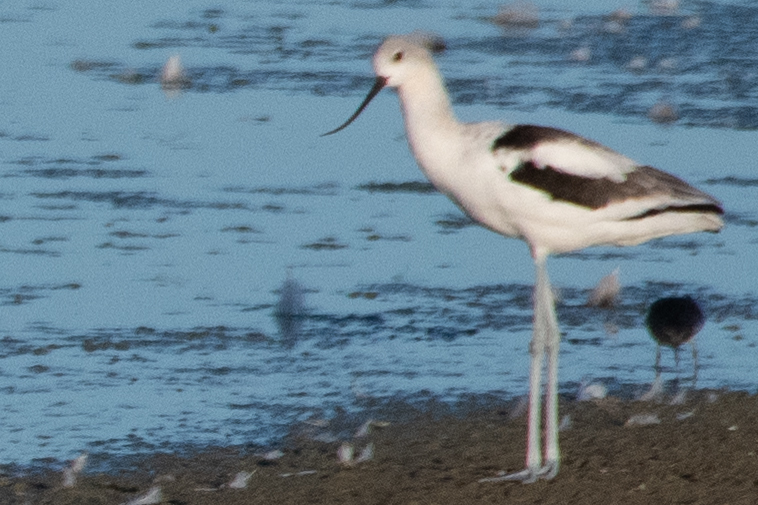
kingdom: Animalia
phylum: Chordata
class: Aves
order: Charadriiformes
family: Recurvirostridae
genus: Recurvirostra
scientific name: Recurvirostra americana
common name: American avocet
